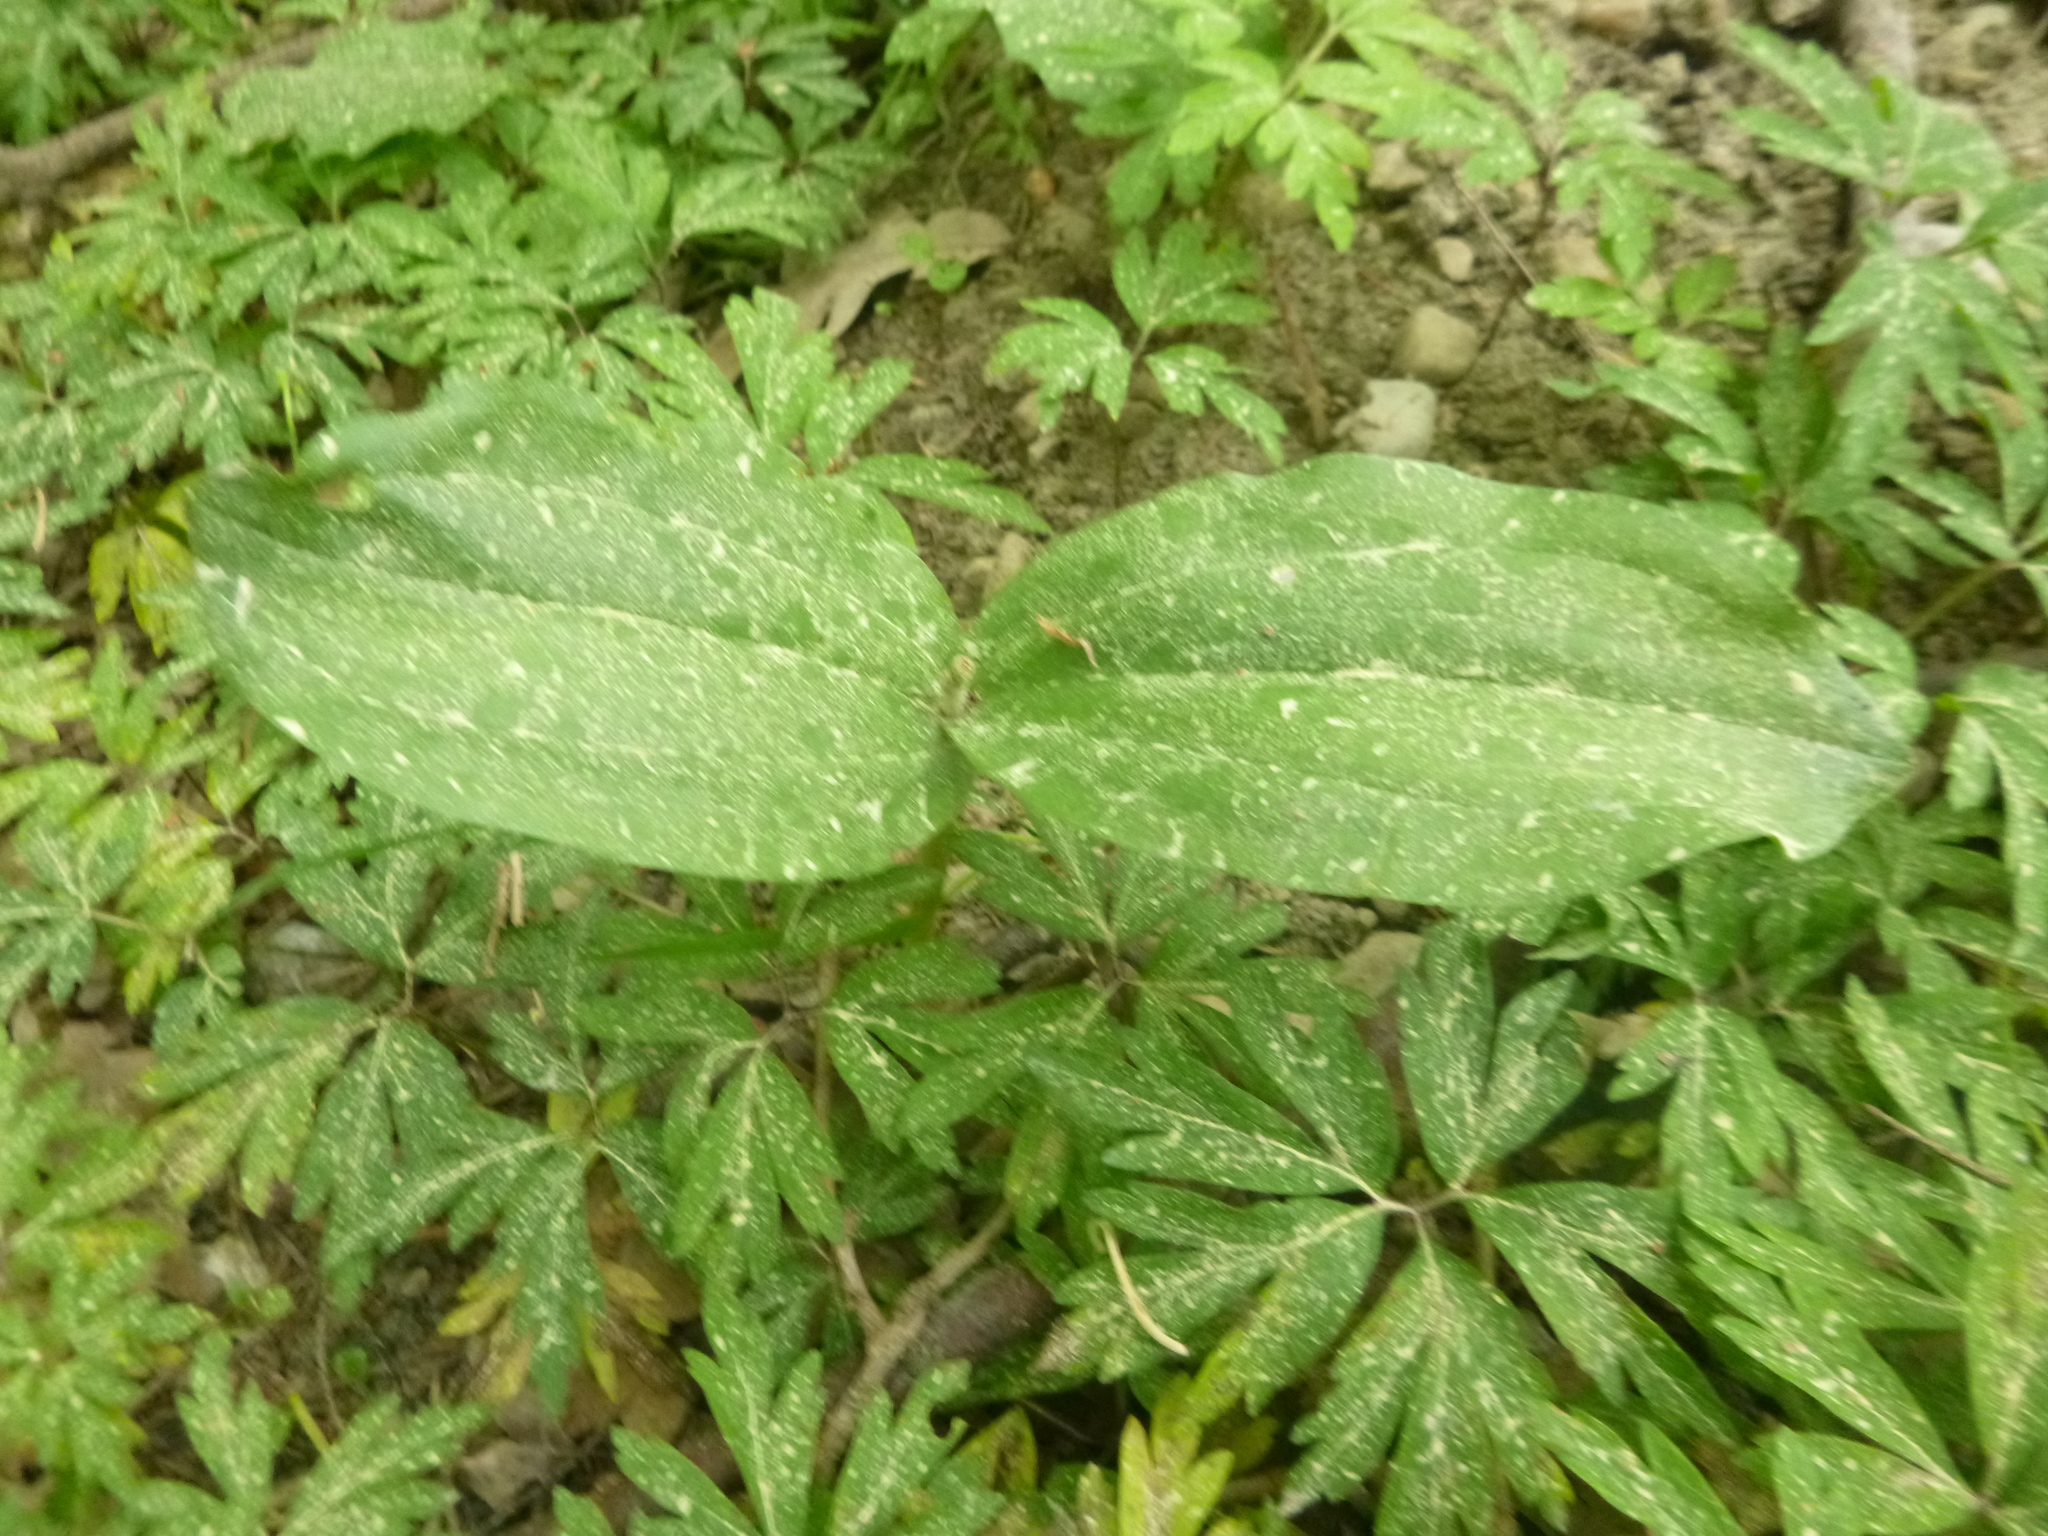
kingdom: Plantae
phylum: Tracheophyta
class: Liliopsida
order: Asparagales
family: Orchidaceae
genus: Neottia
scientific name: Neottia ovata
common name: Common twayblade
